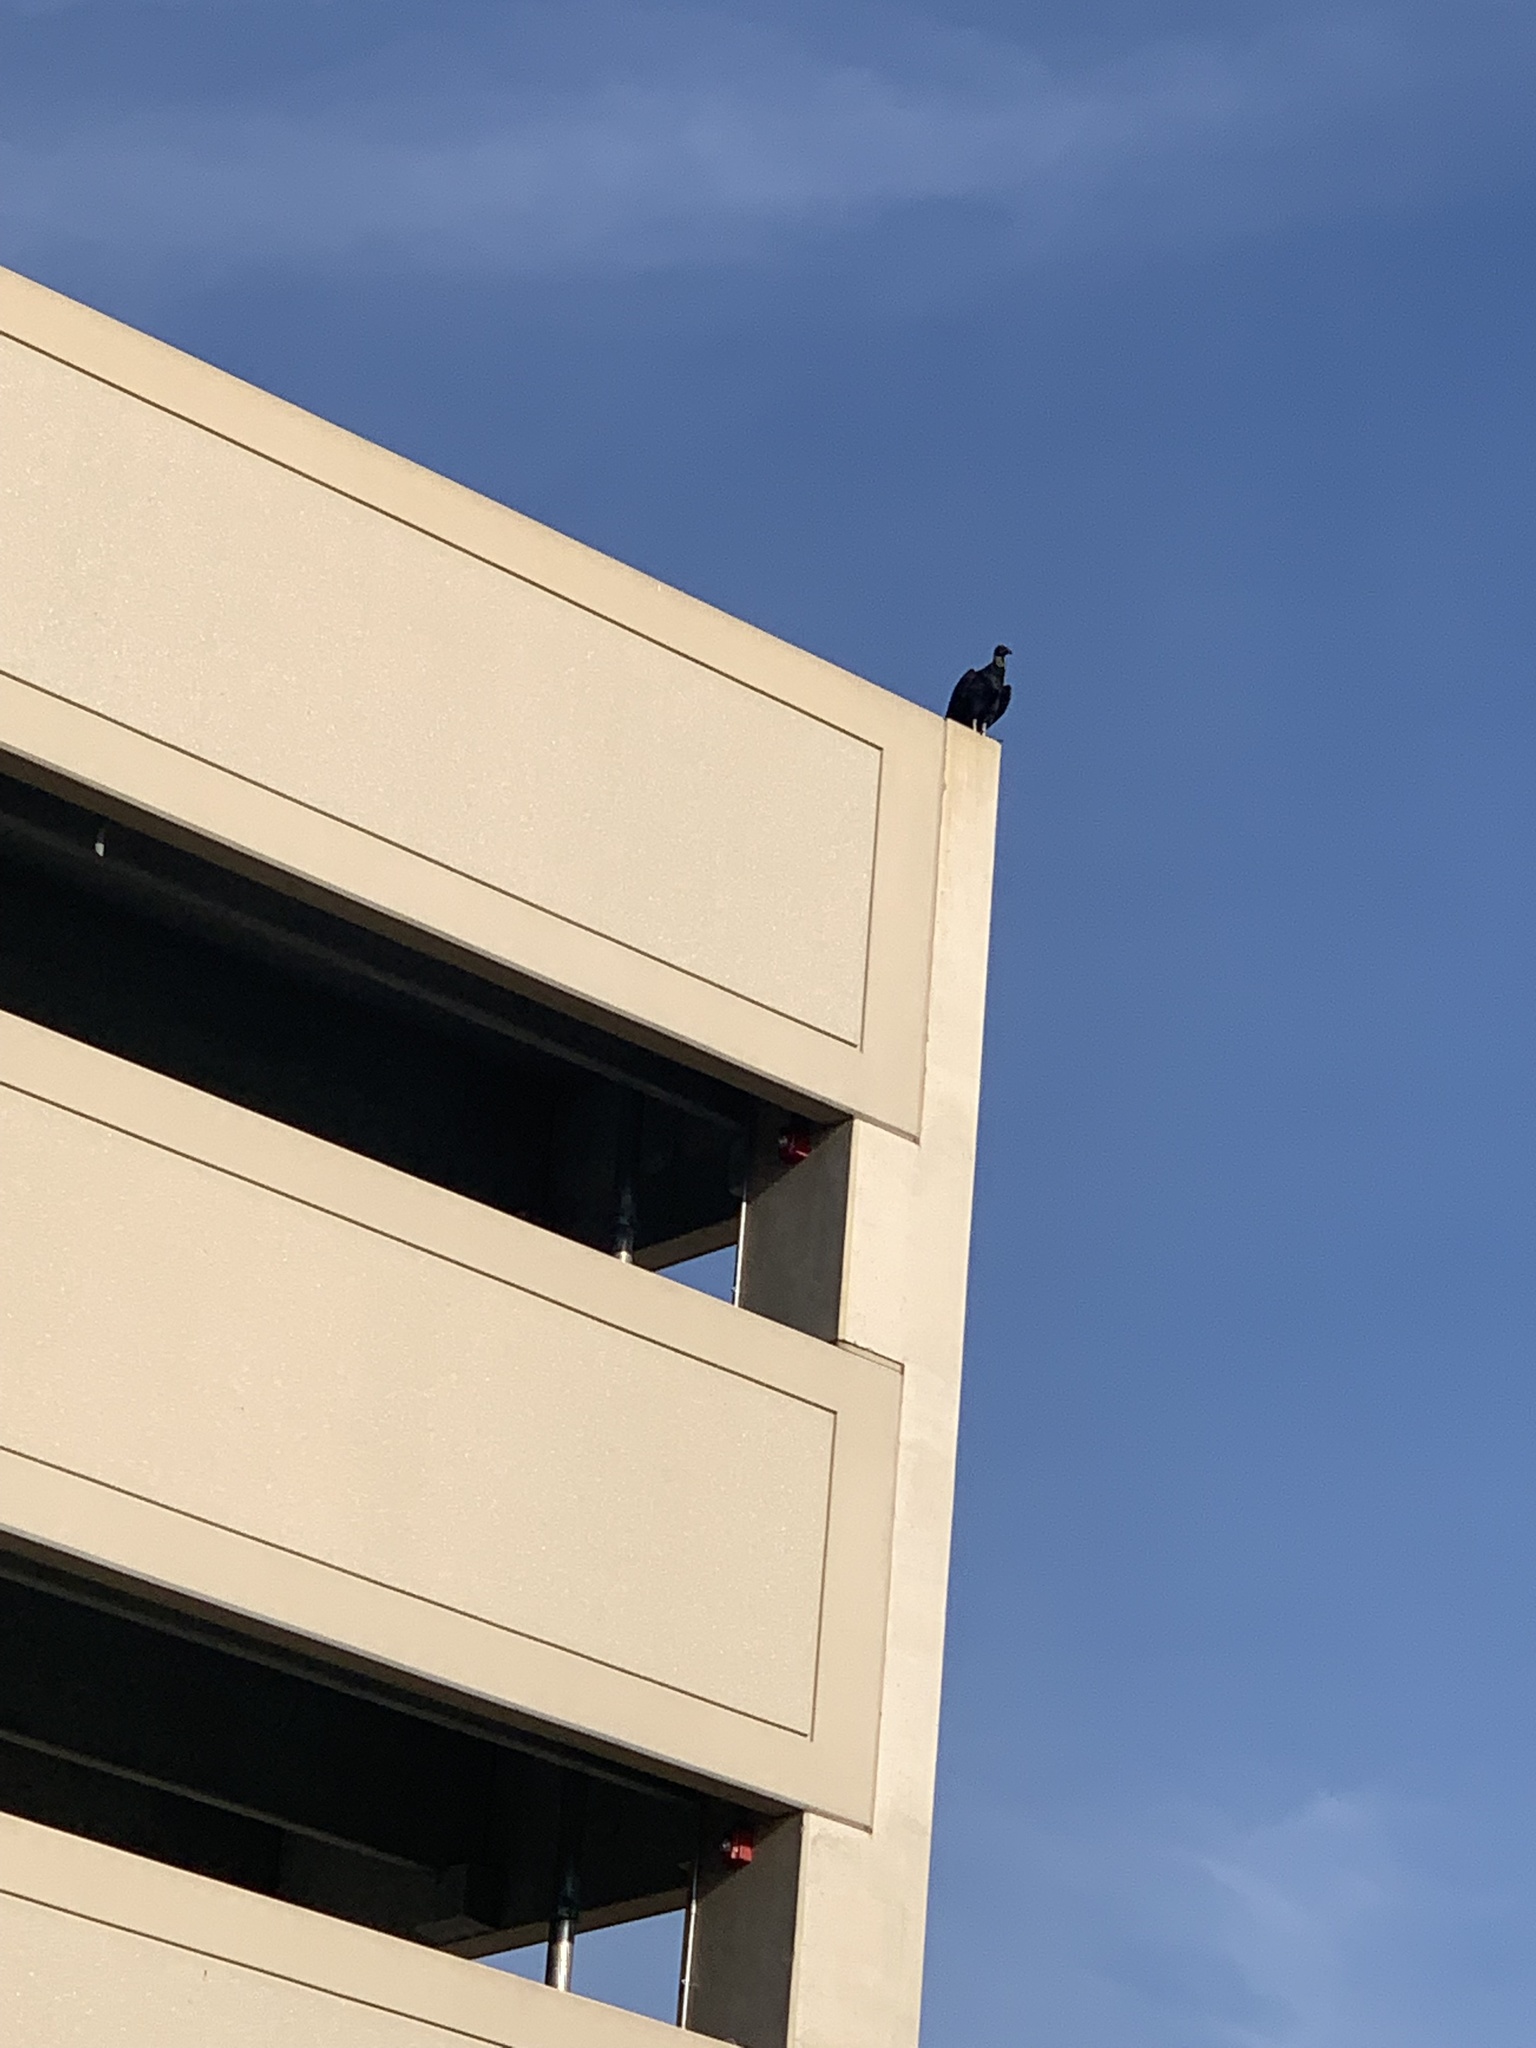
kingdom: Animalia
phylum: Chordata
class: Aves
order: Accipitriformes
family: Cathartidae
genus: Coragyps
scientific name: Coragyps atratus
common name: Black vulture
